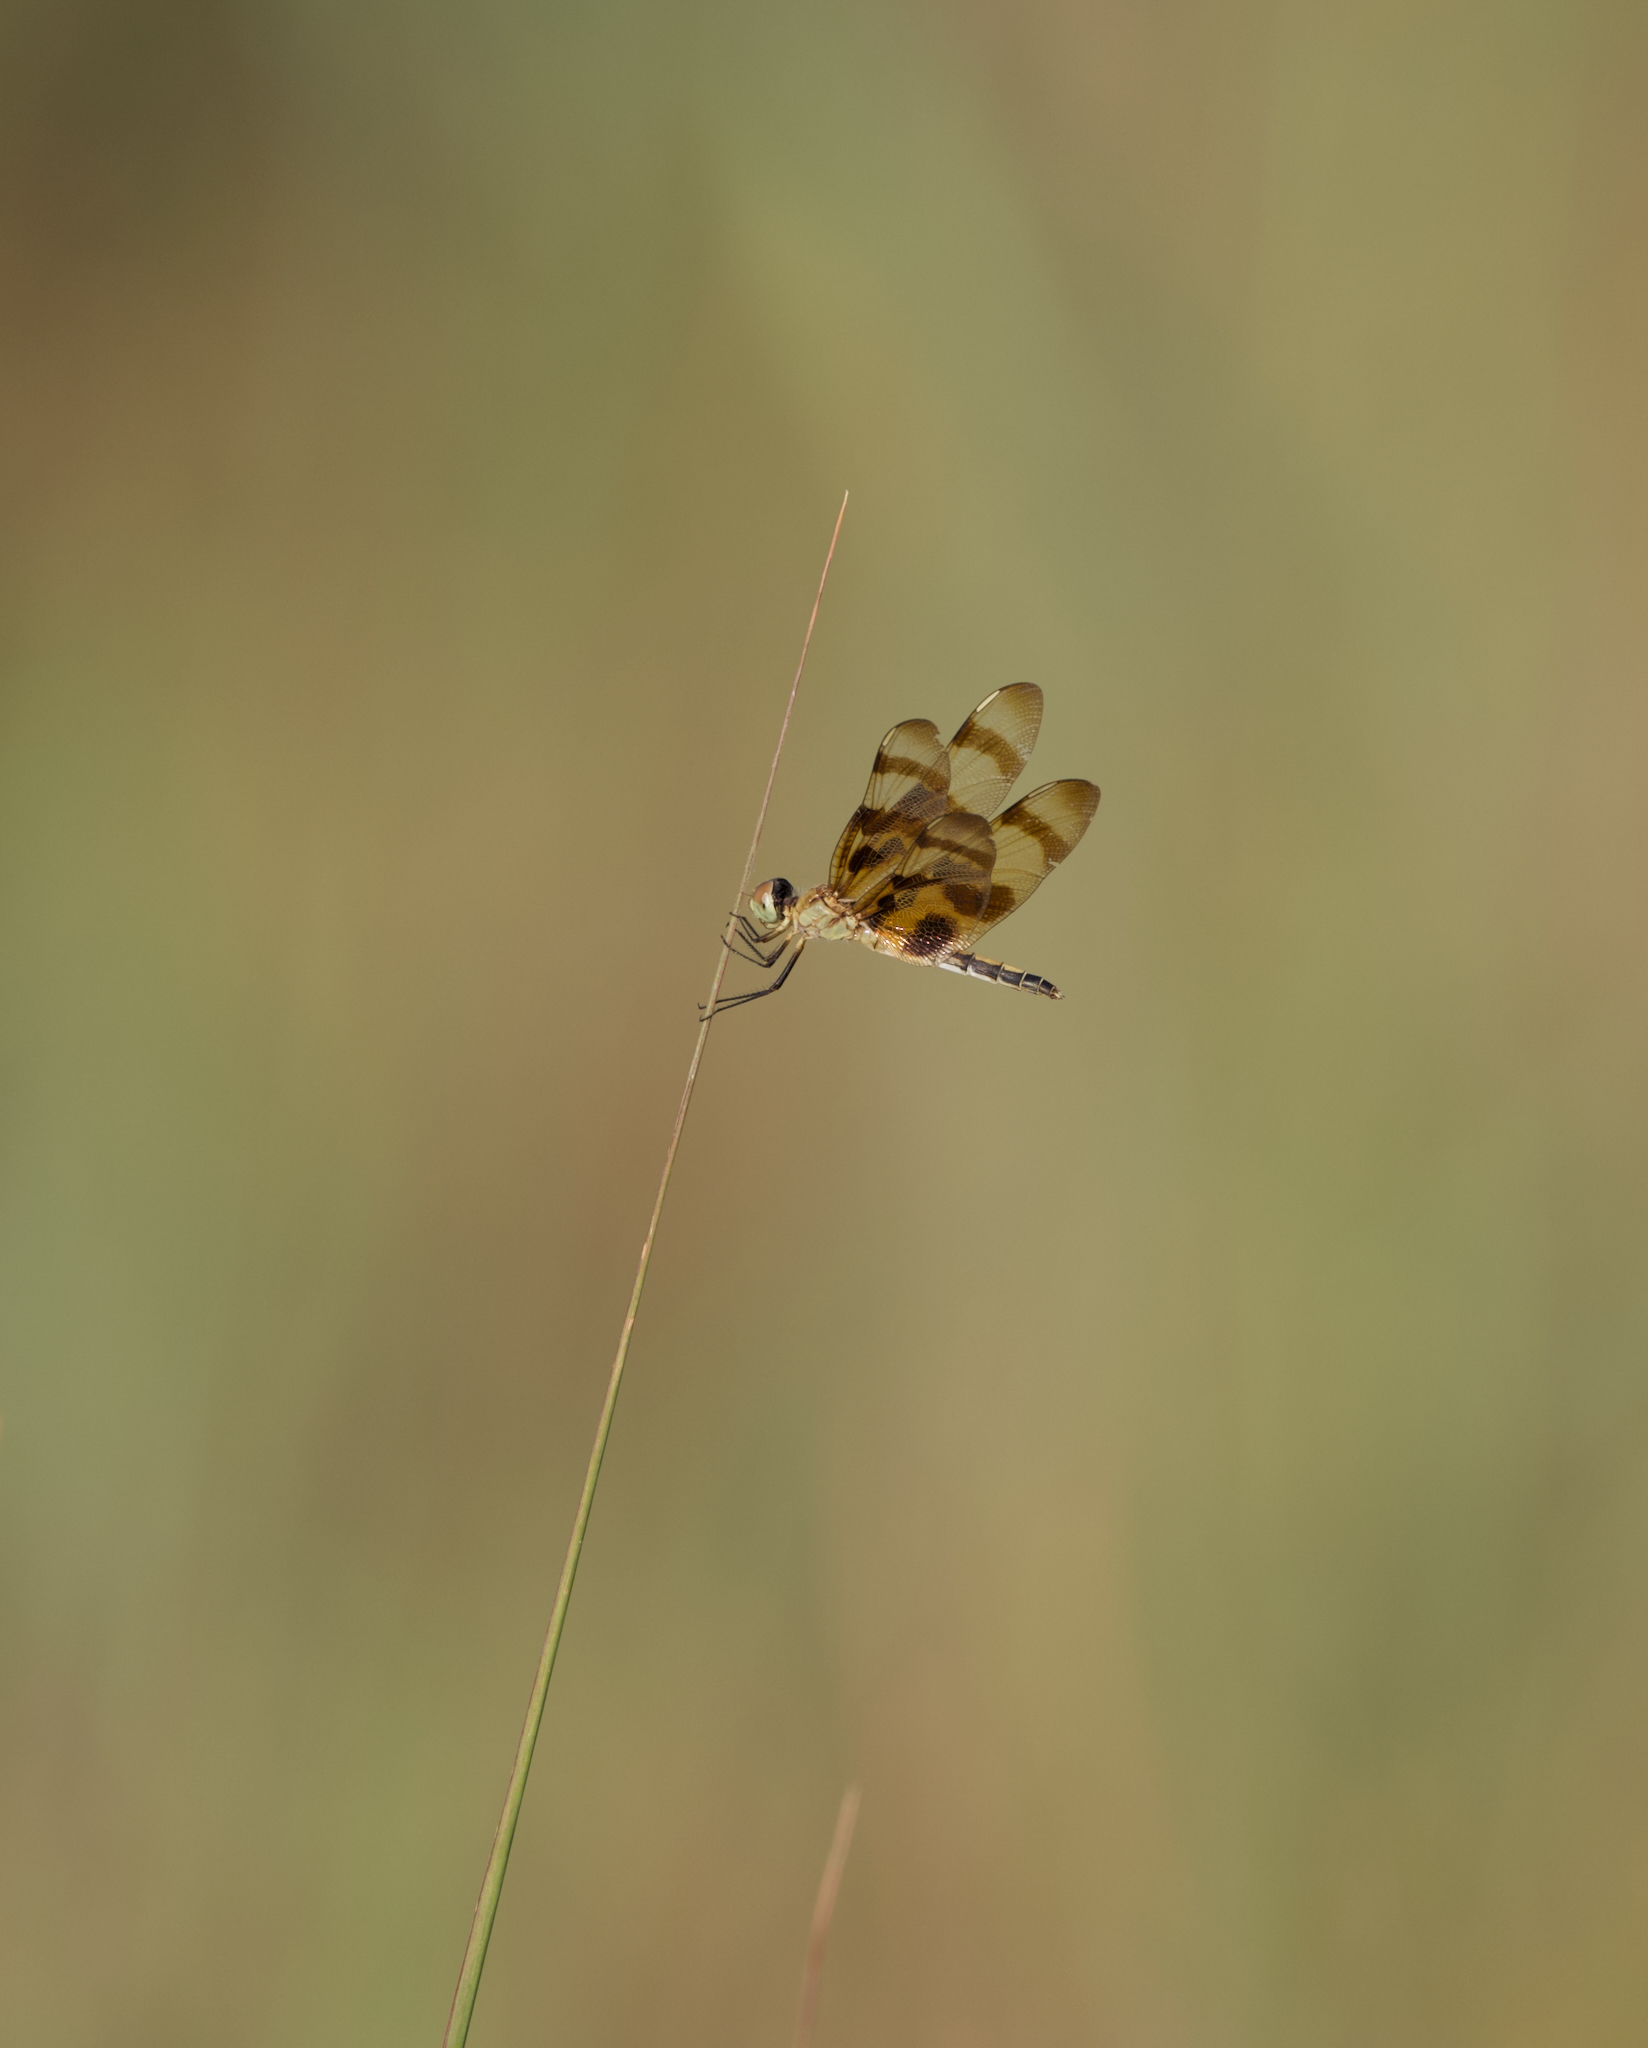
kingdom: Animalia
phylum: Arthropoda
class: Insecta
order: Odonata
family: Libellulidae
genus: Celithemis
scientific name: Celithemis eponina
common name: Halloween pennant
